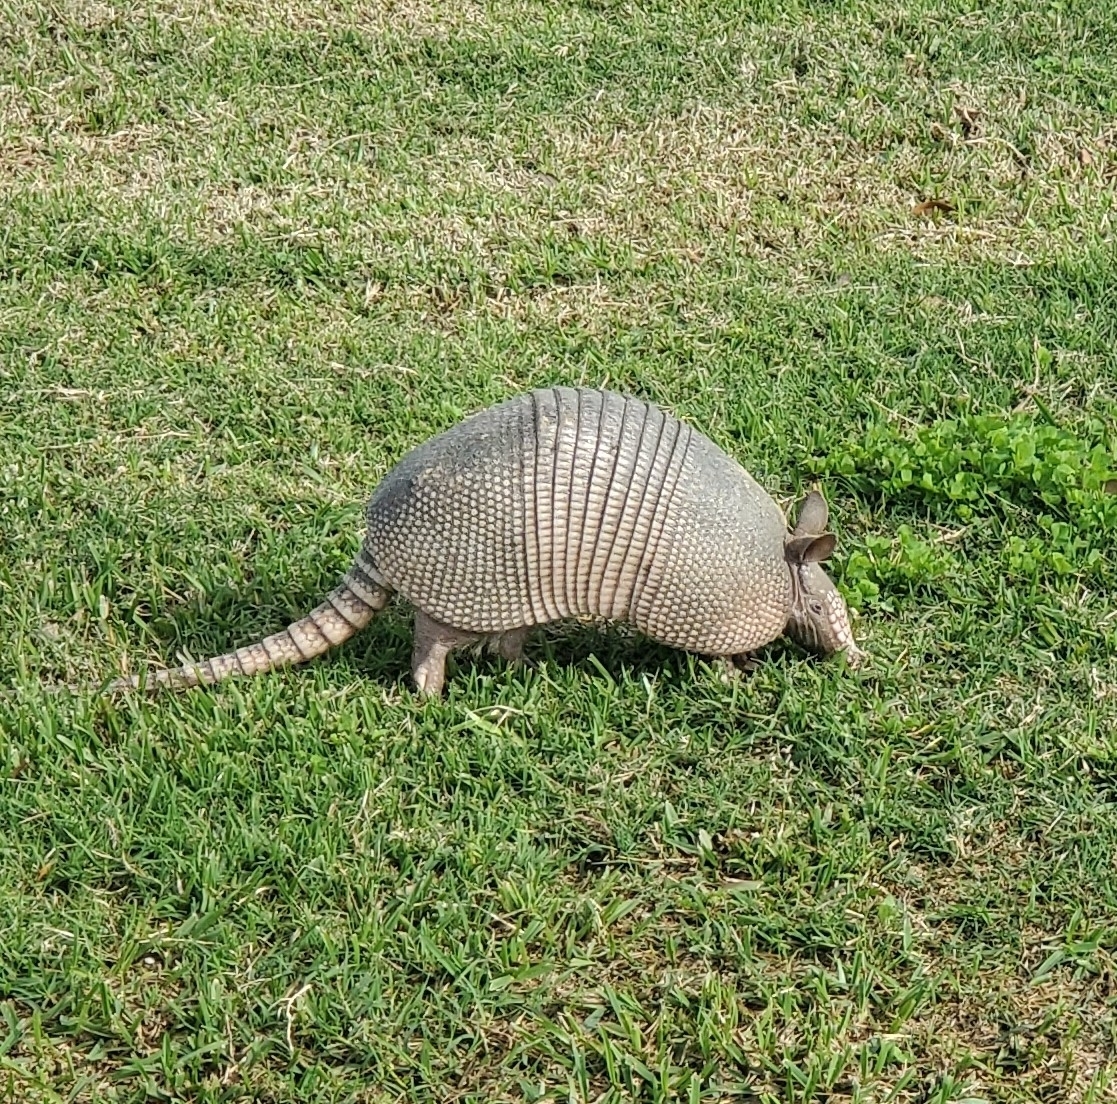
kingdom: Animalia
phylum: Chordata
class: Mammalia
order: Cingulata
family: Dasypodidae
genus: Dasypus
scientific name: Dasypus novemcinctus
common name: Nine-banded armadillo
